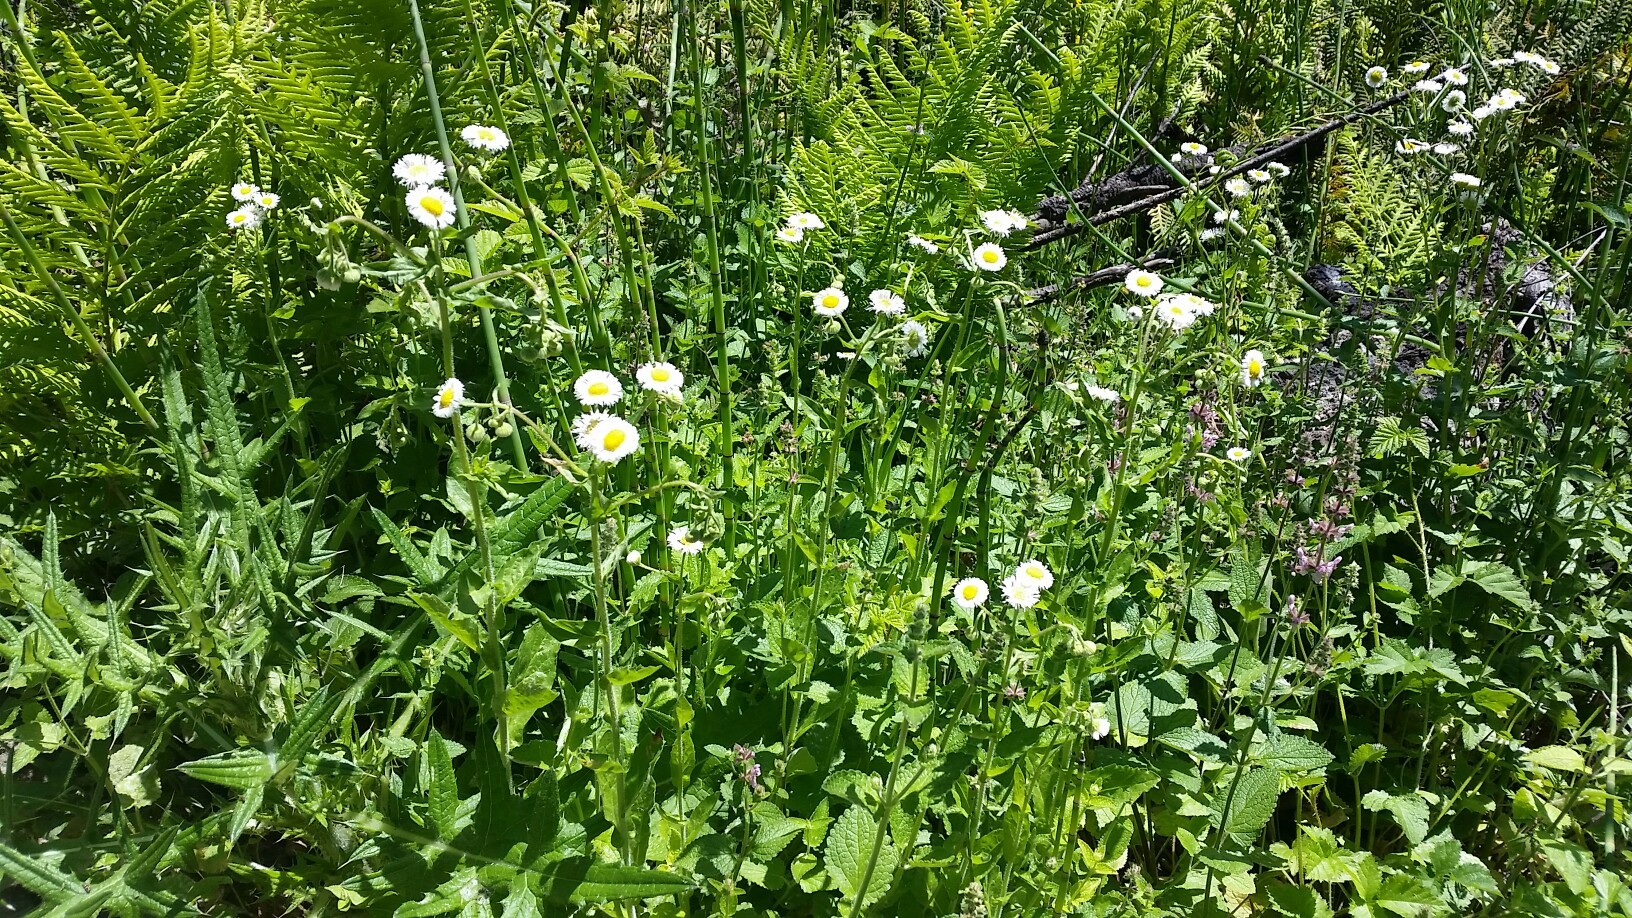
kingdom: Plantae
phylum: Tracheophyta
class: Magnoliopsida
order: Asterales
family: Asteraceae
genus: Erigeron
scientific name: Erigeron philadelphicus
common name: Robin's-plantain
